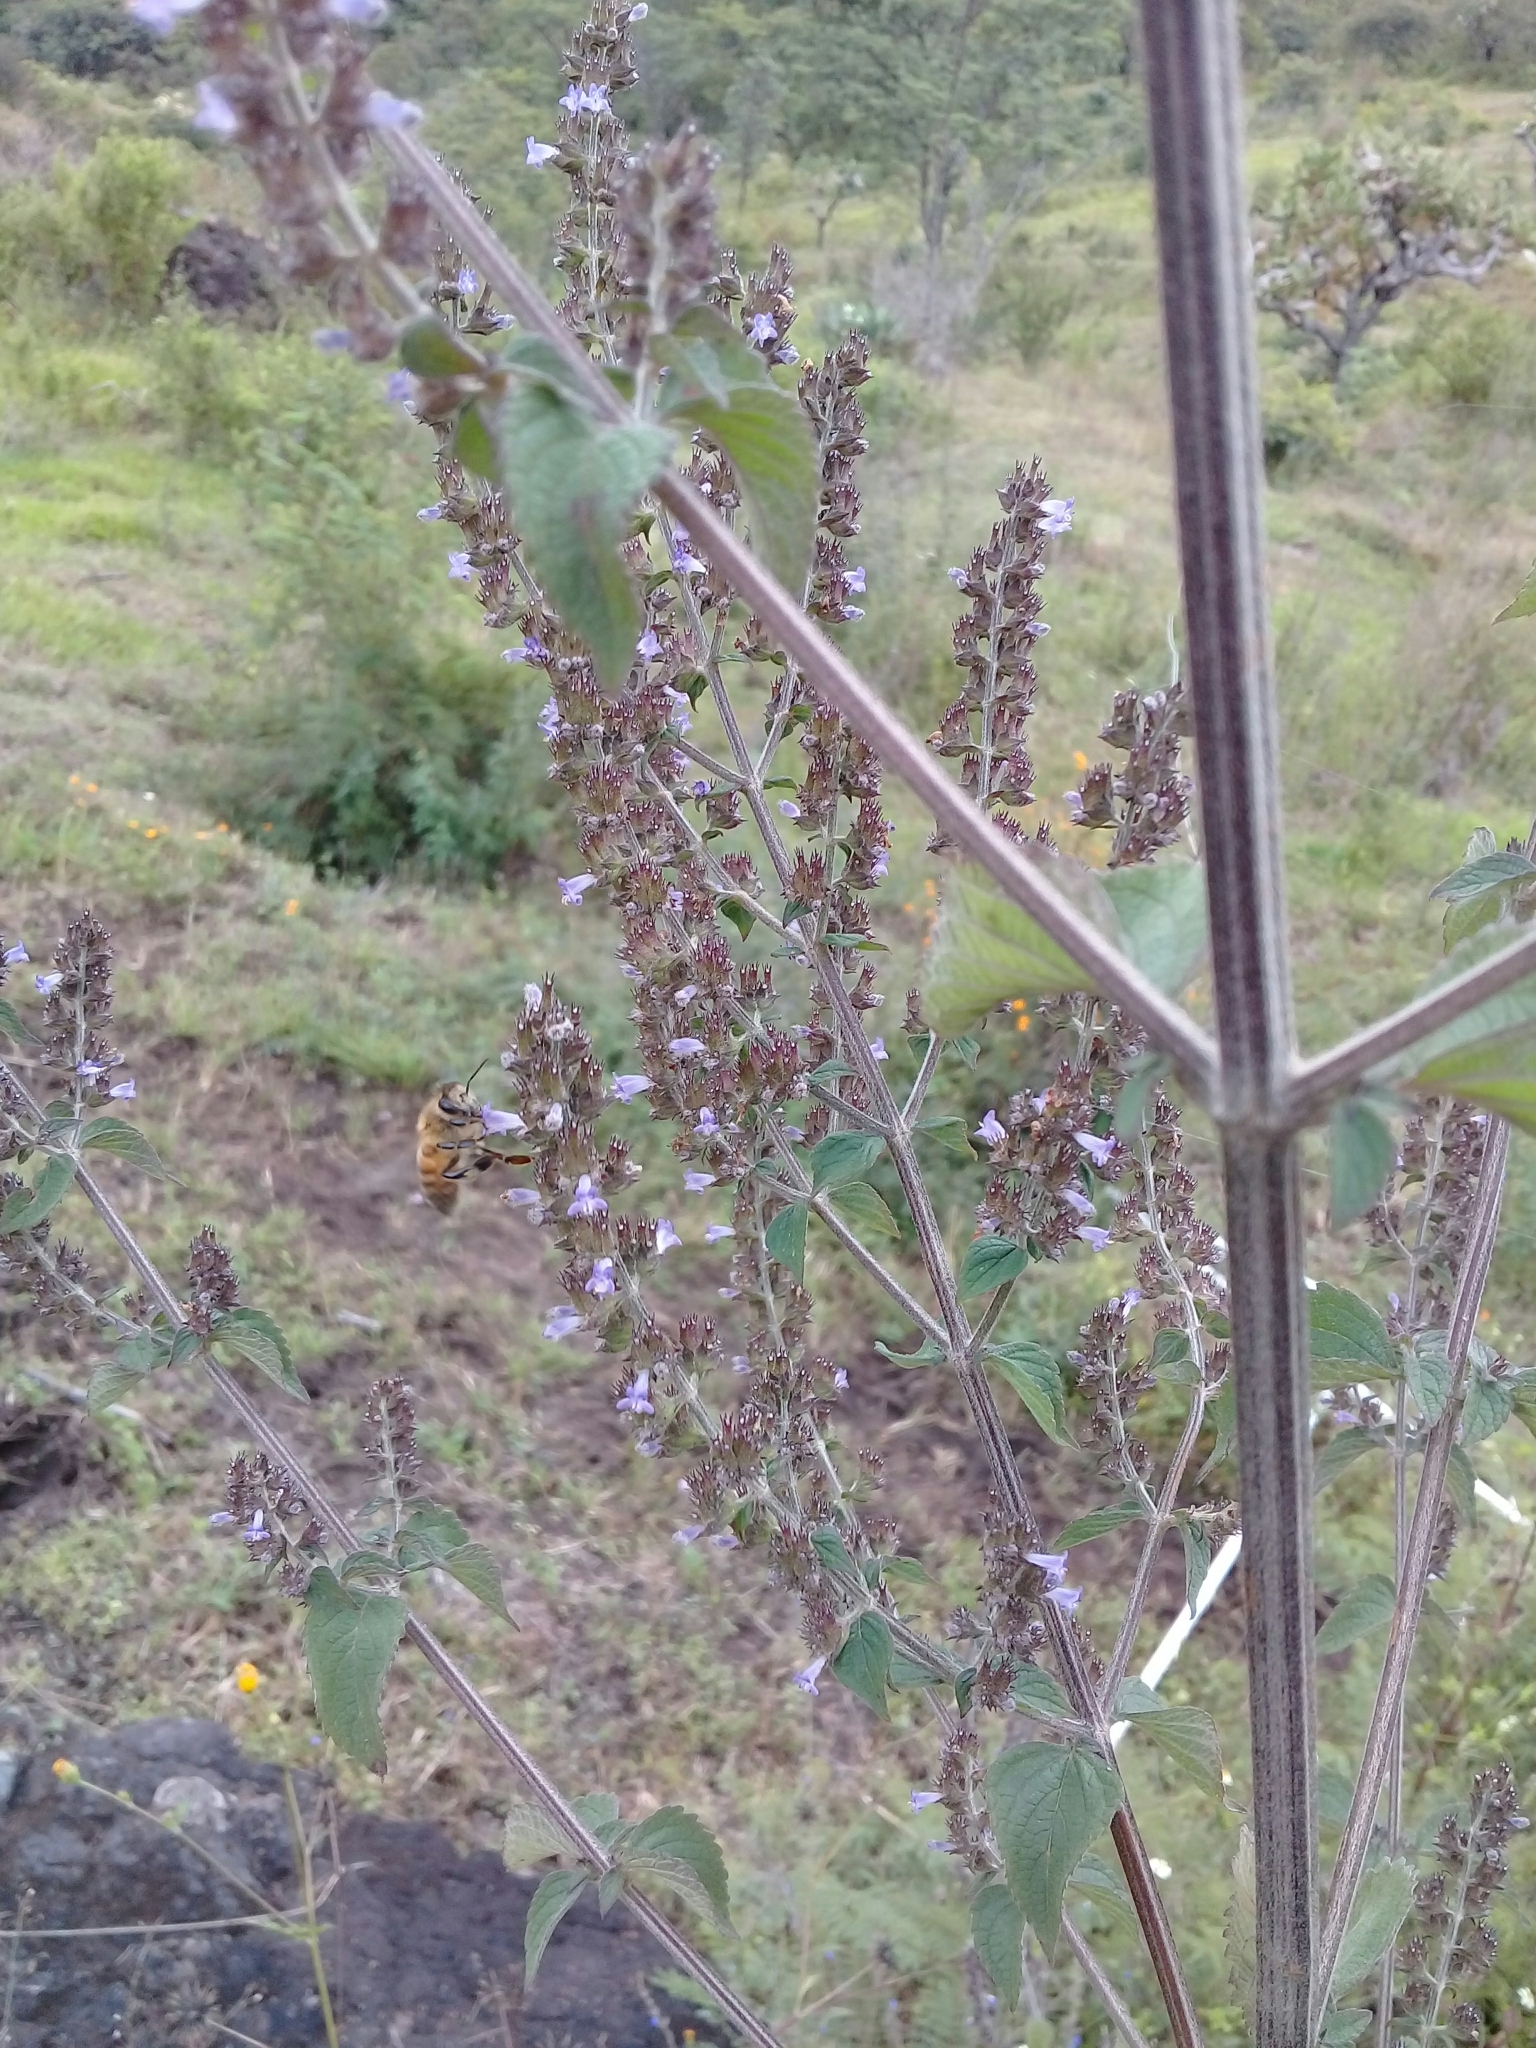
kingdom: Plantae
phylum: Tracheophyta
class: Magnoliopsida
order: Lamiales
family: Lamiaceae
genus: Cantinoa
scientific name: Cantinoa mutabilis
